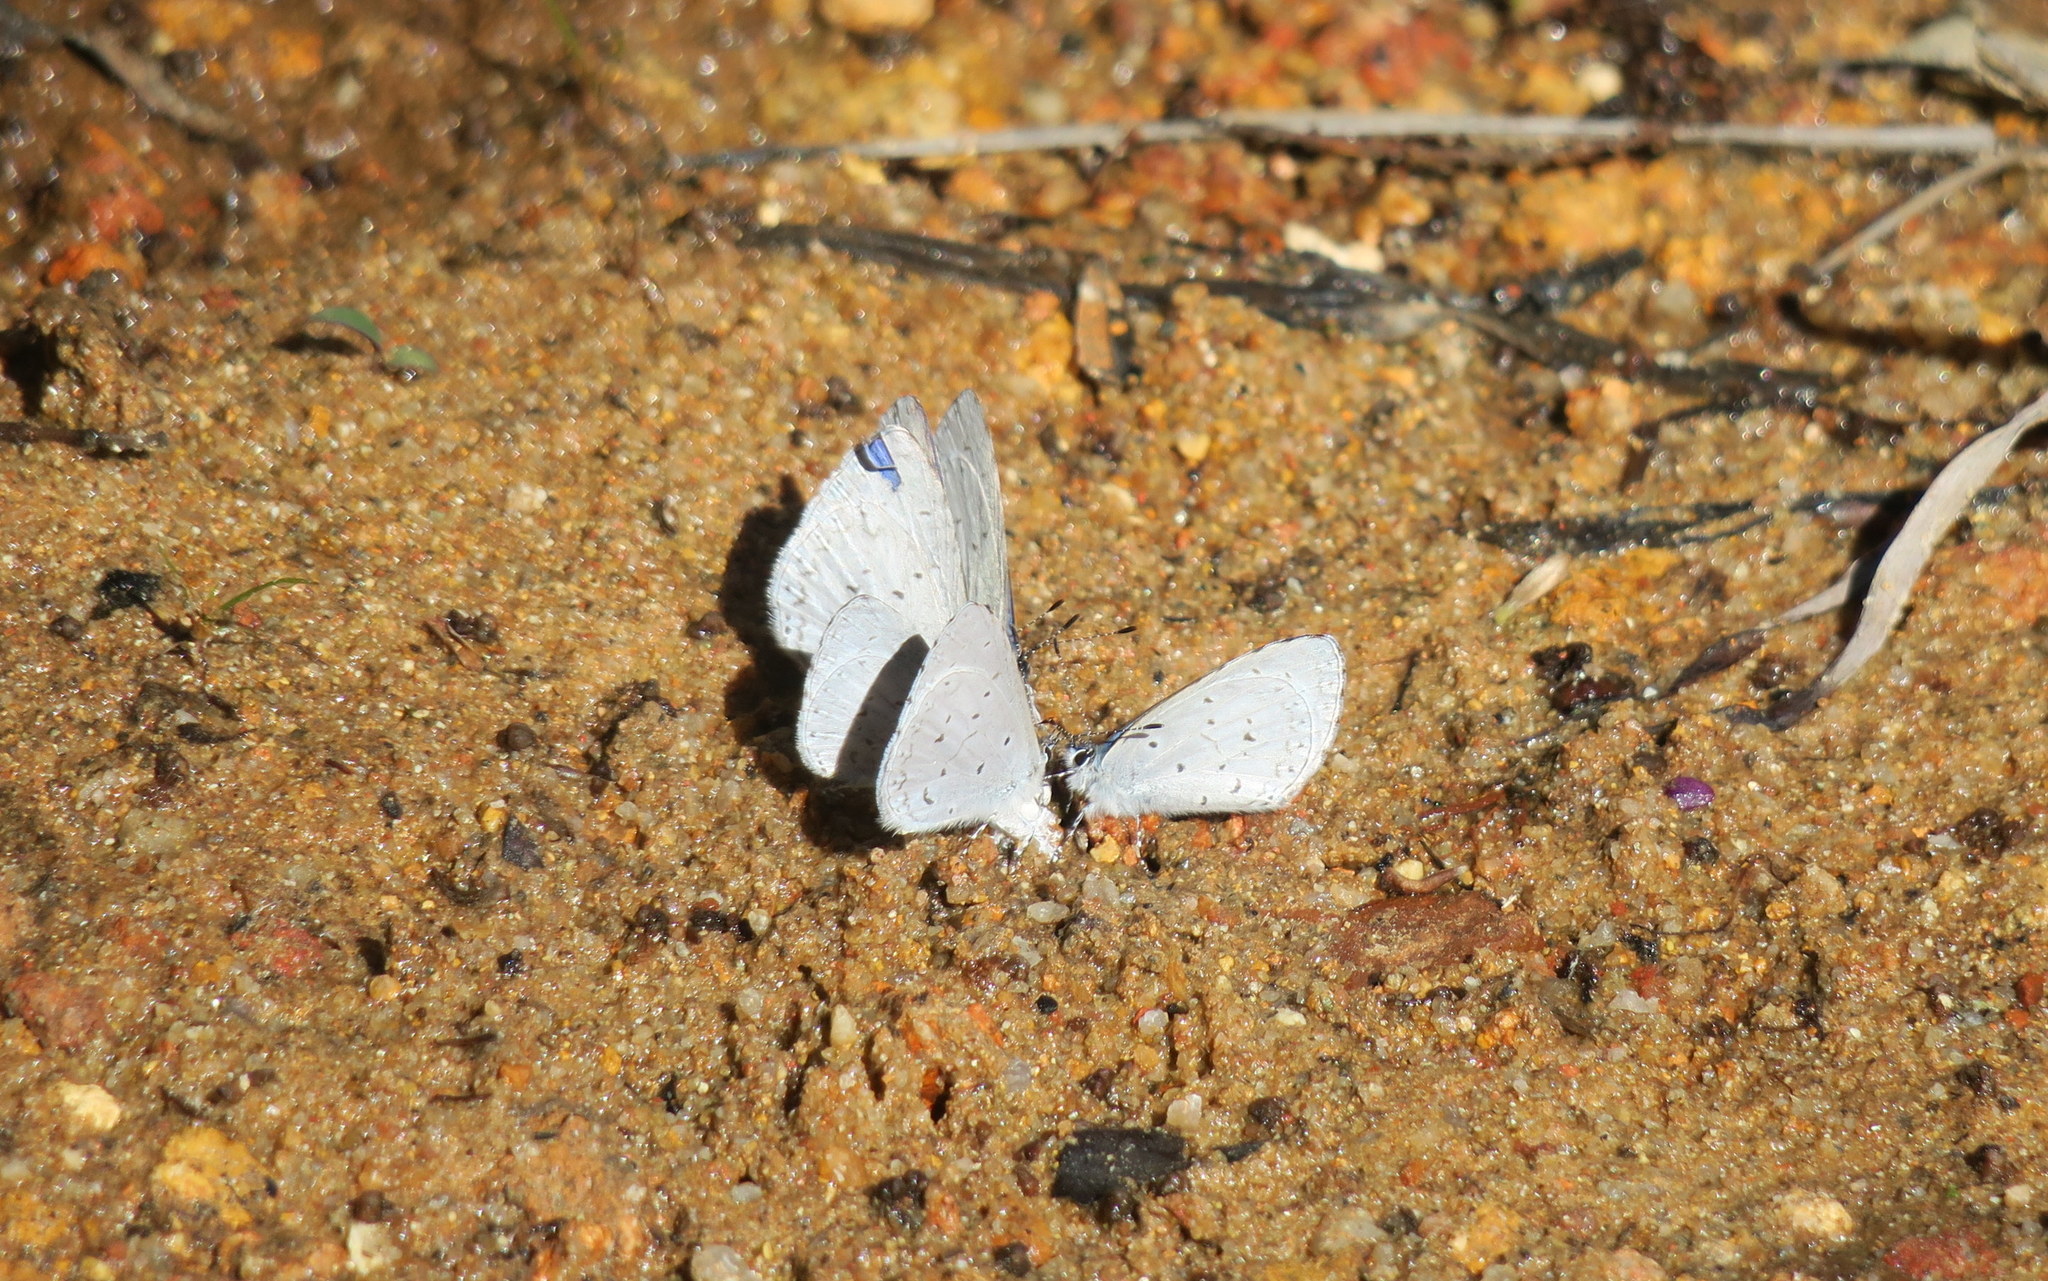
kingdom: Animalia
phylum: Arthropoda
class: Insecta
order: Lepidoptera
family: Lycaenidae
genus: Udara
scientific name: Udara dilectus
